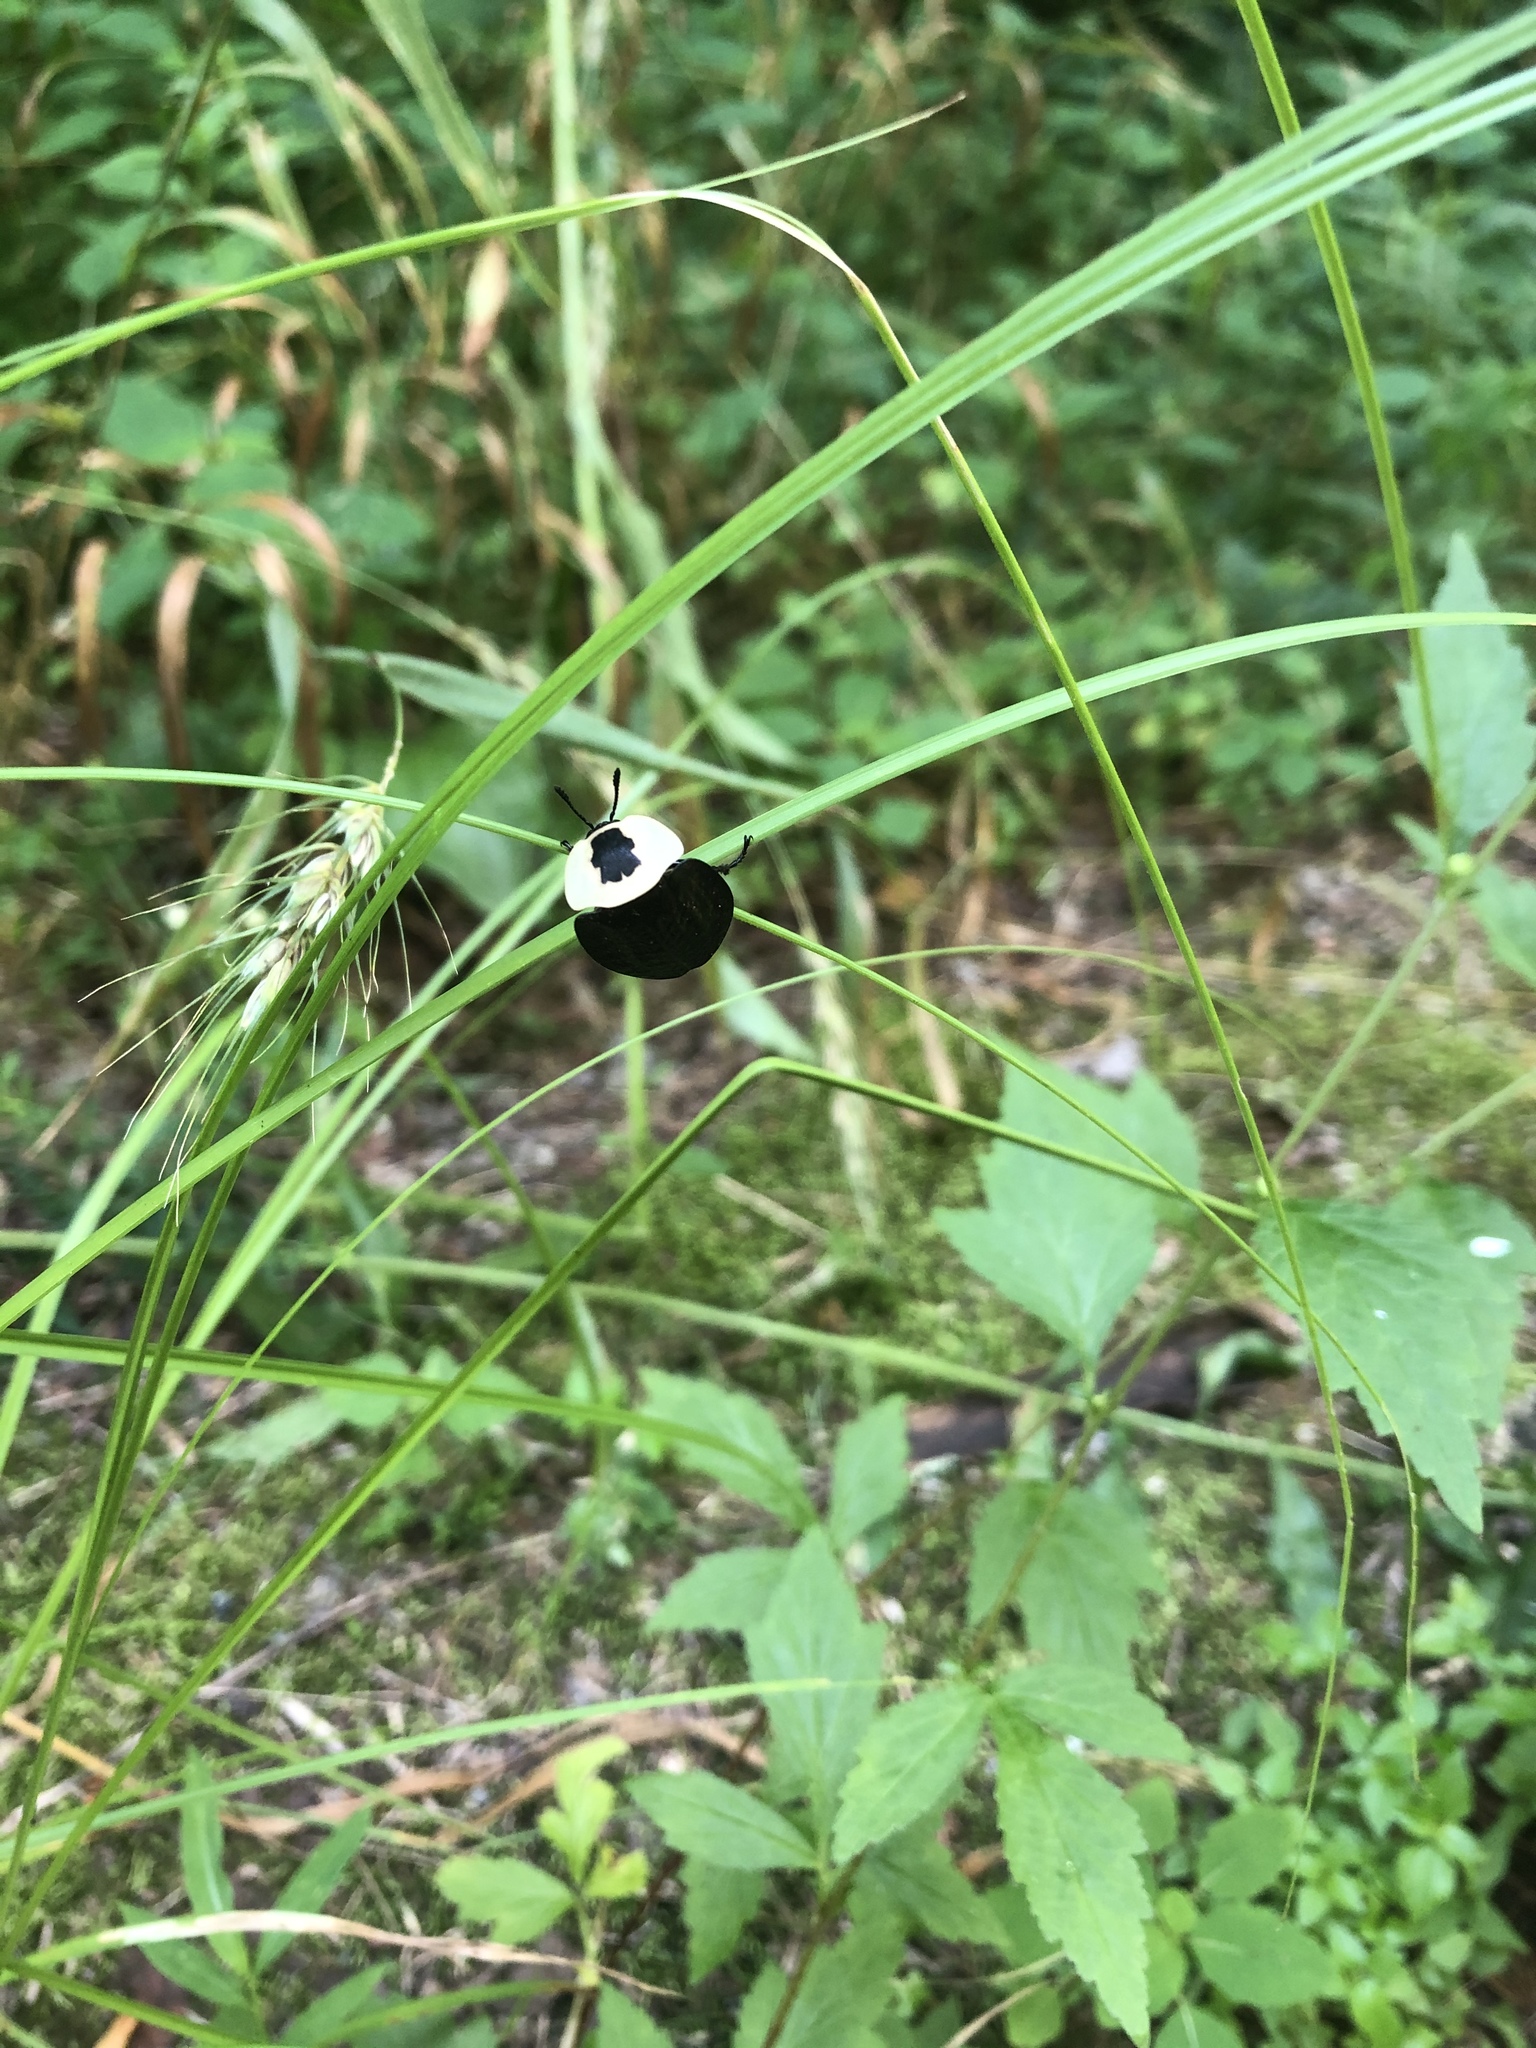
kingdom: Animalia
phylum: Arthropoda
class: Insecta
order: Coleoptera
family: Staphylinidae
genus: Necrophila
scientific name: Necrophila americana
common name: American carrion beetle
